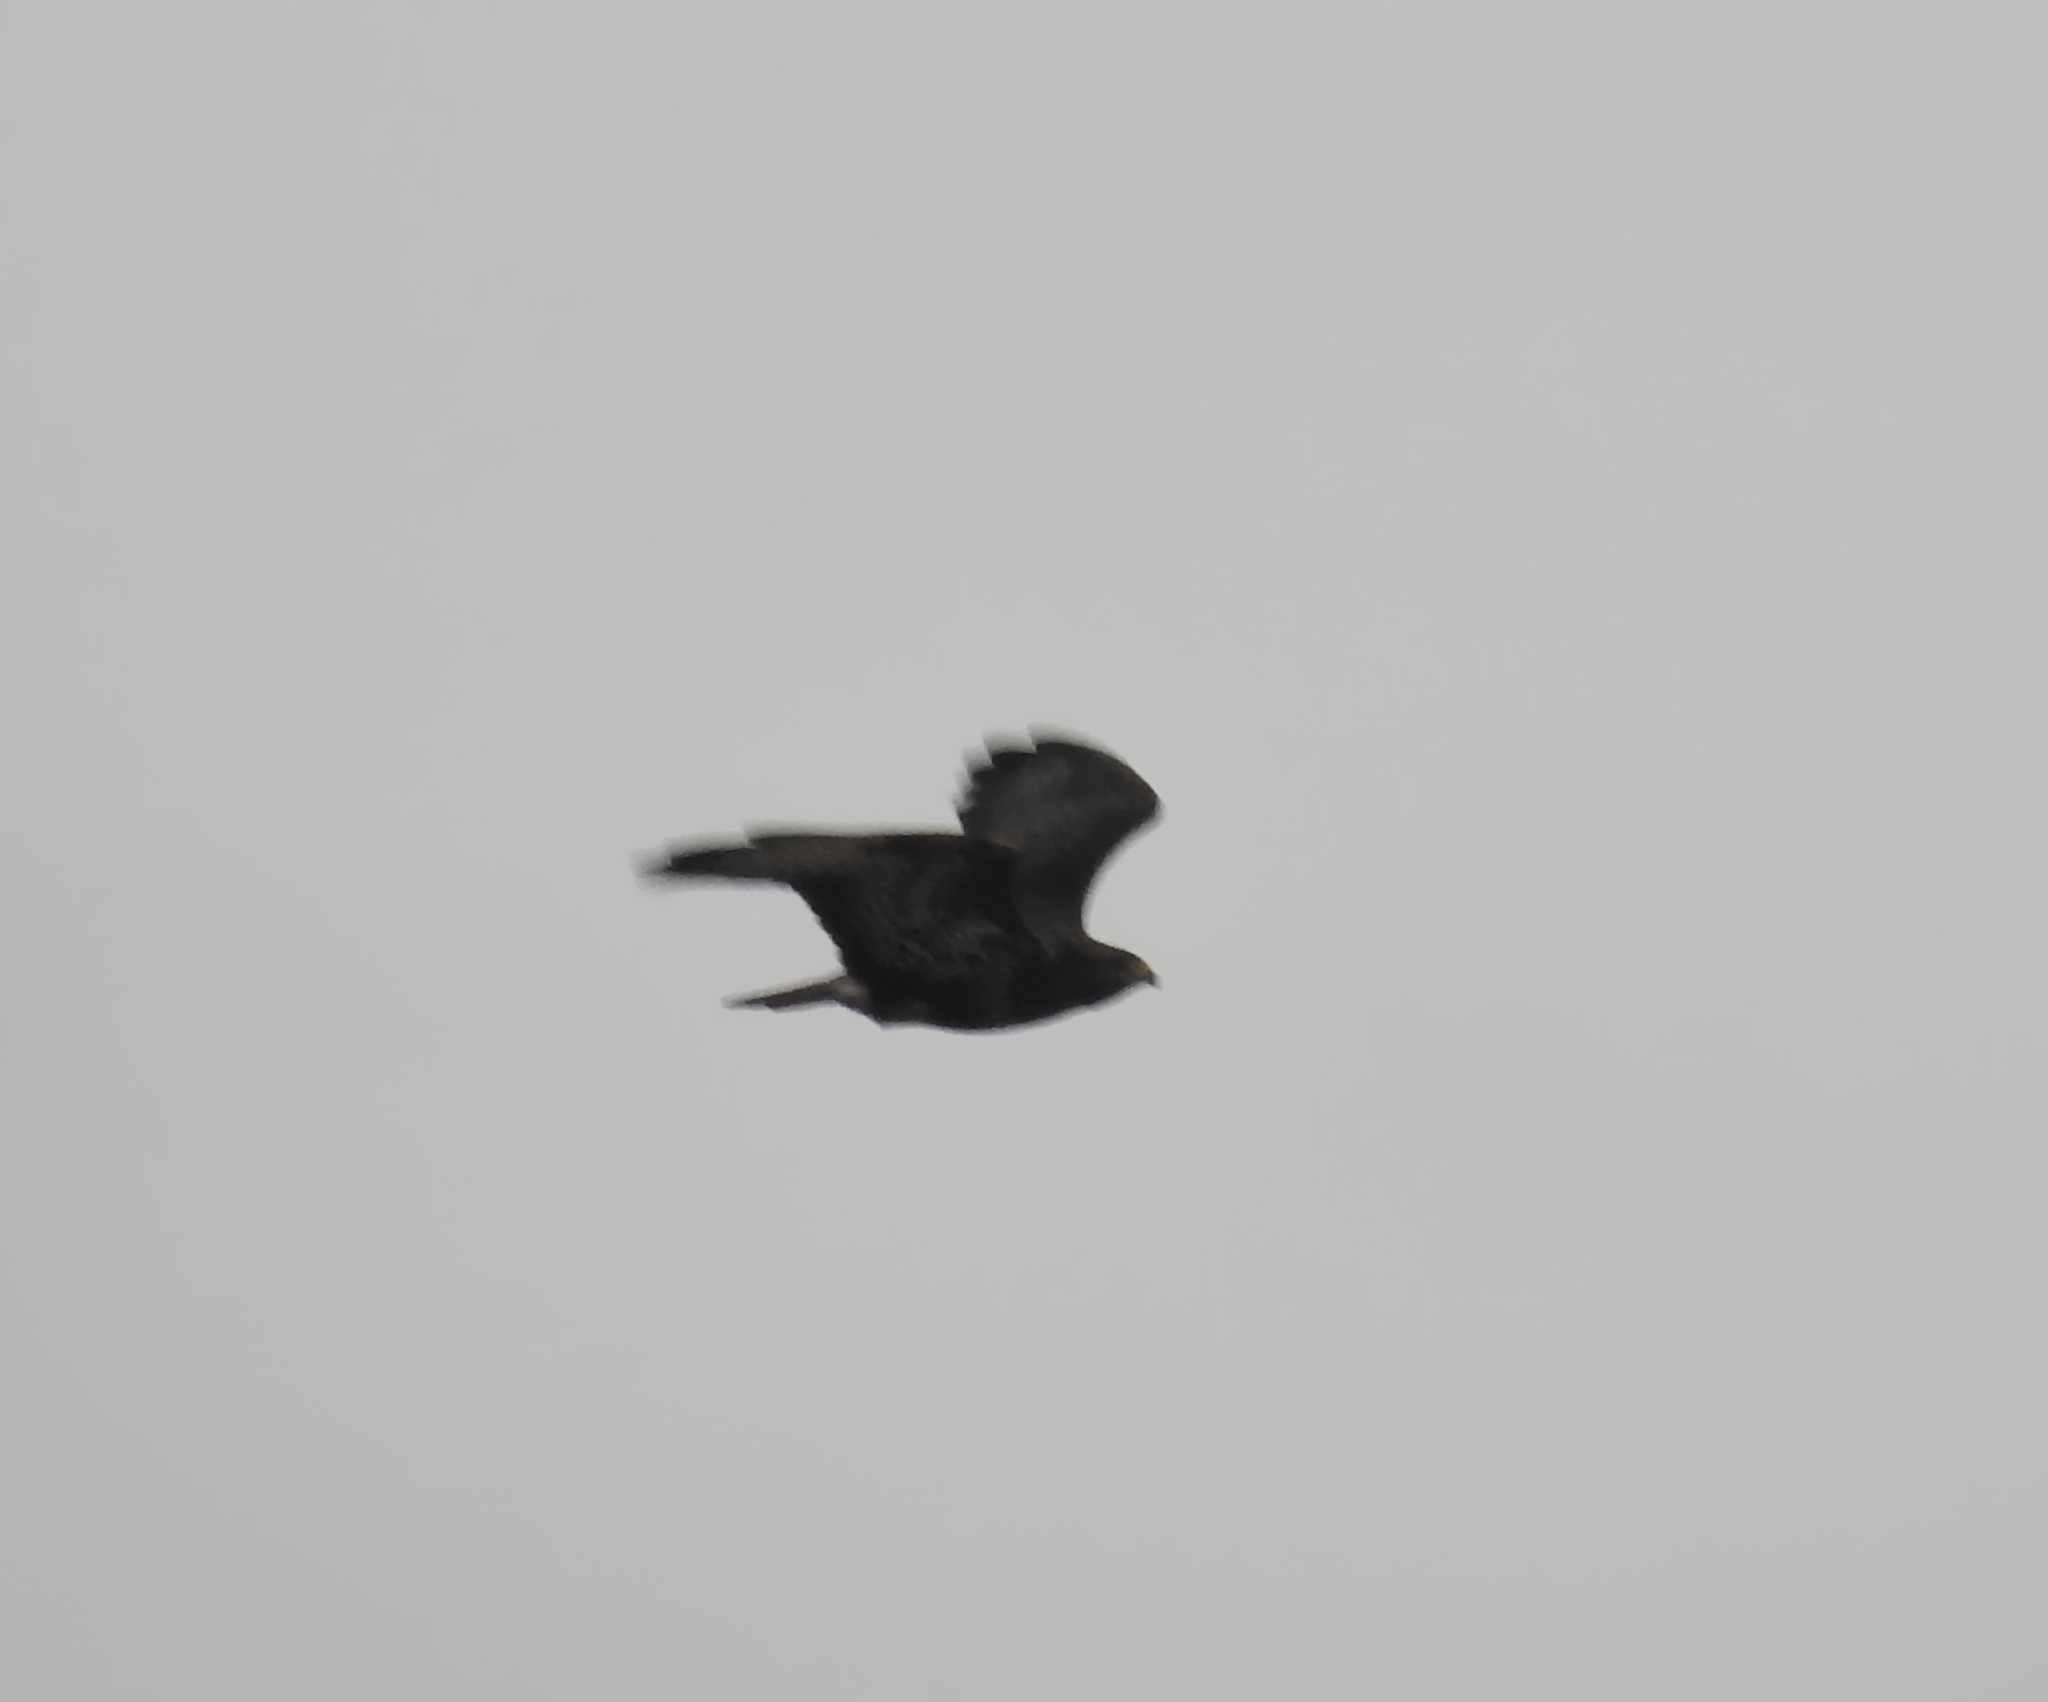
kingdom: Animalia
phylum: Chordata
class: Aves
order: Accipitriformes
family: Accipitridae
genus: Buteo
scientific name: Buteo buteo
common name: Common buzzard
